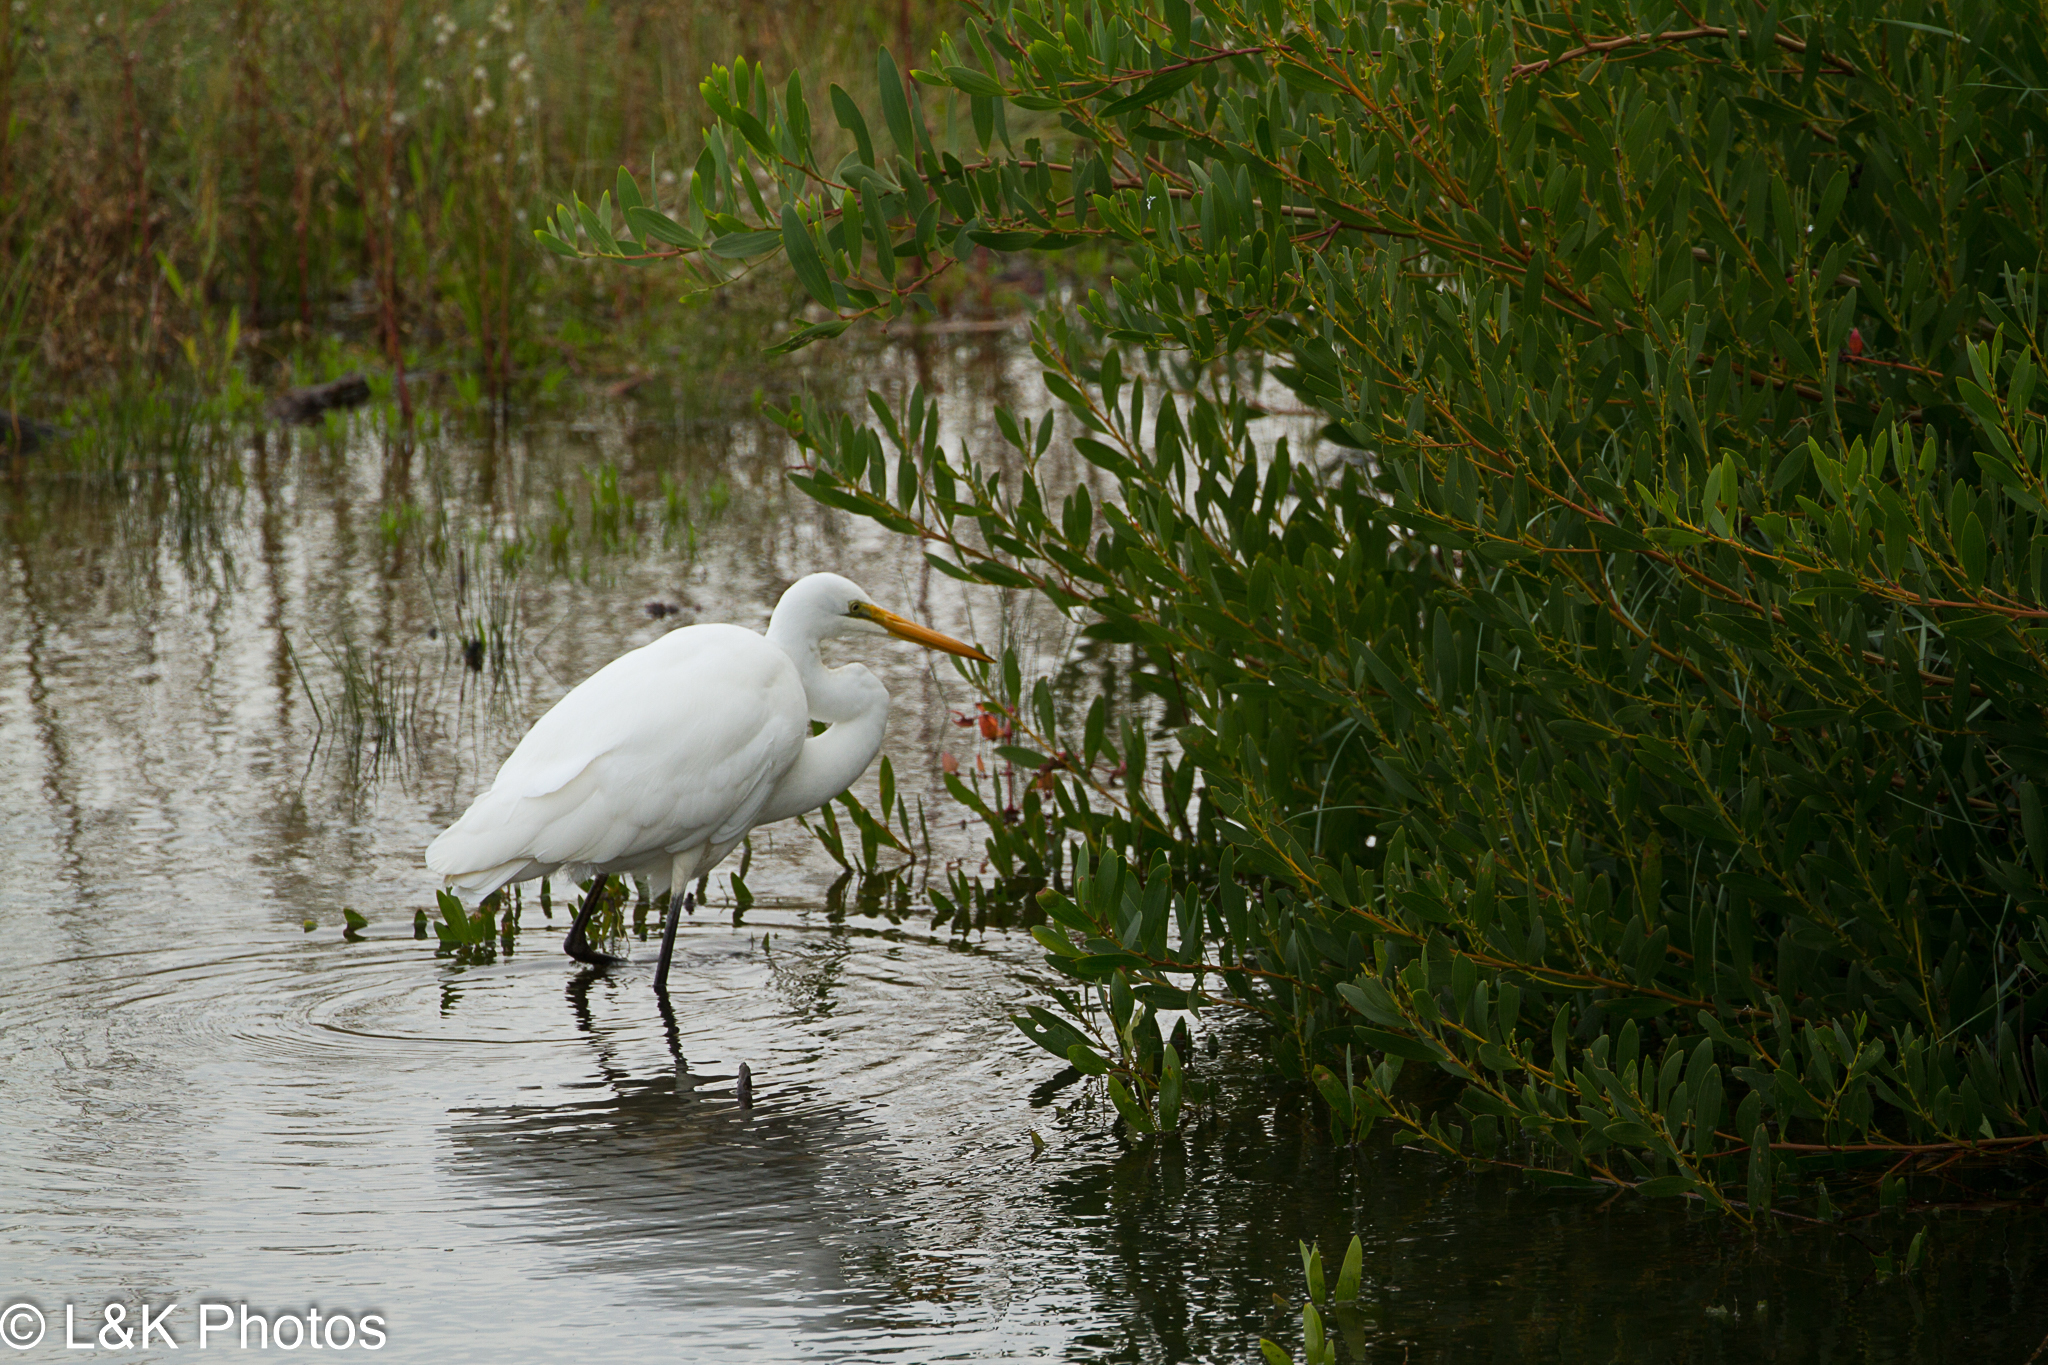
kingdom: Animalia
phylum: Chordata
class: Aves
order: Pelecaniformes
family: Ardeidae
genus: Ardea
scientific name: Ardea alba
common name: Great egret
